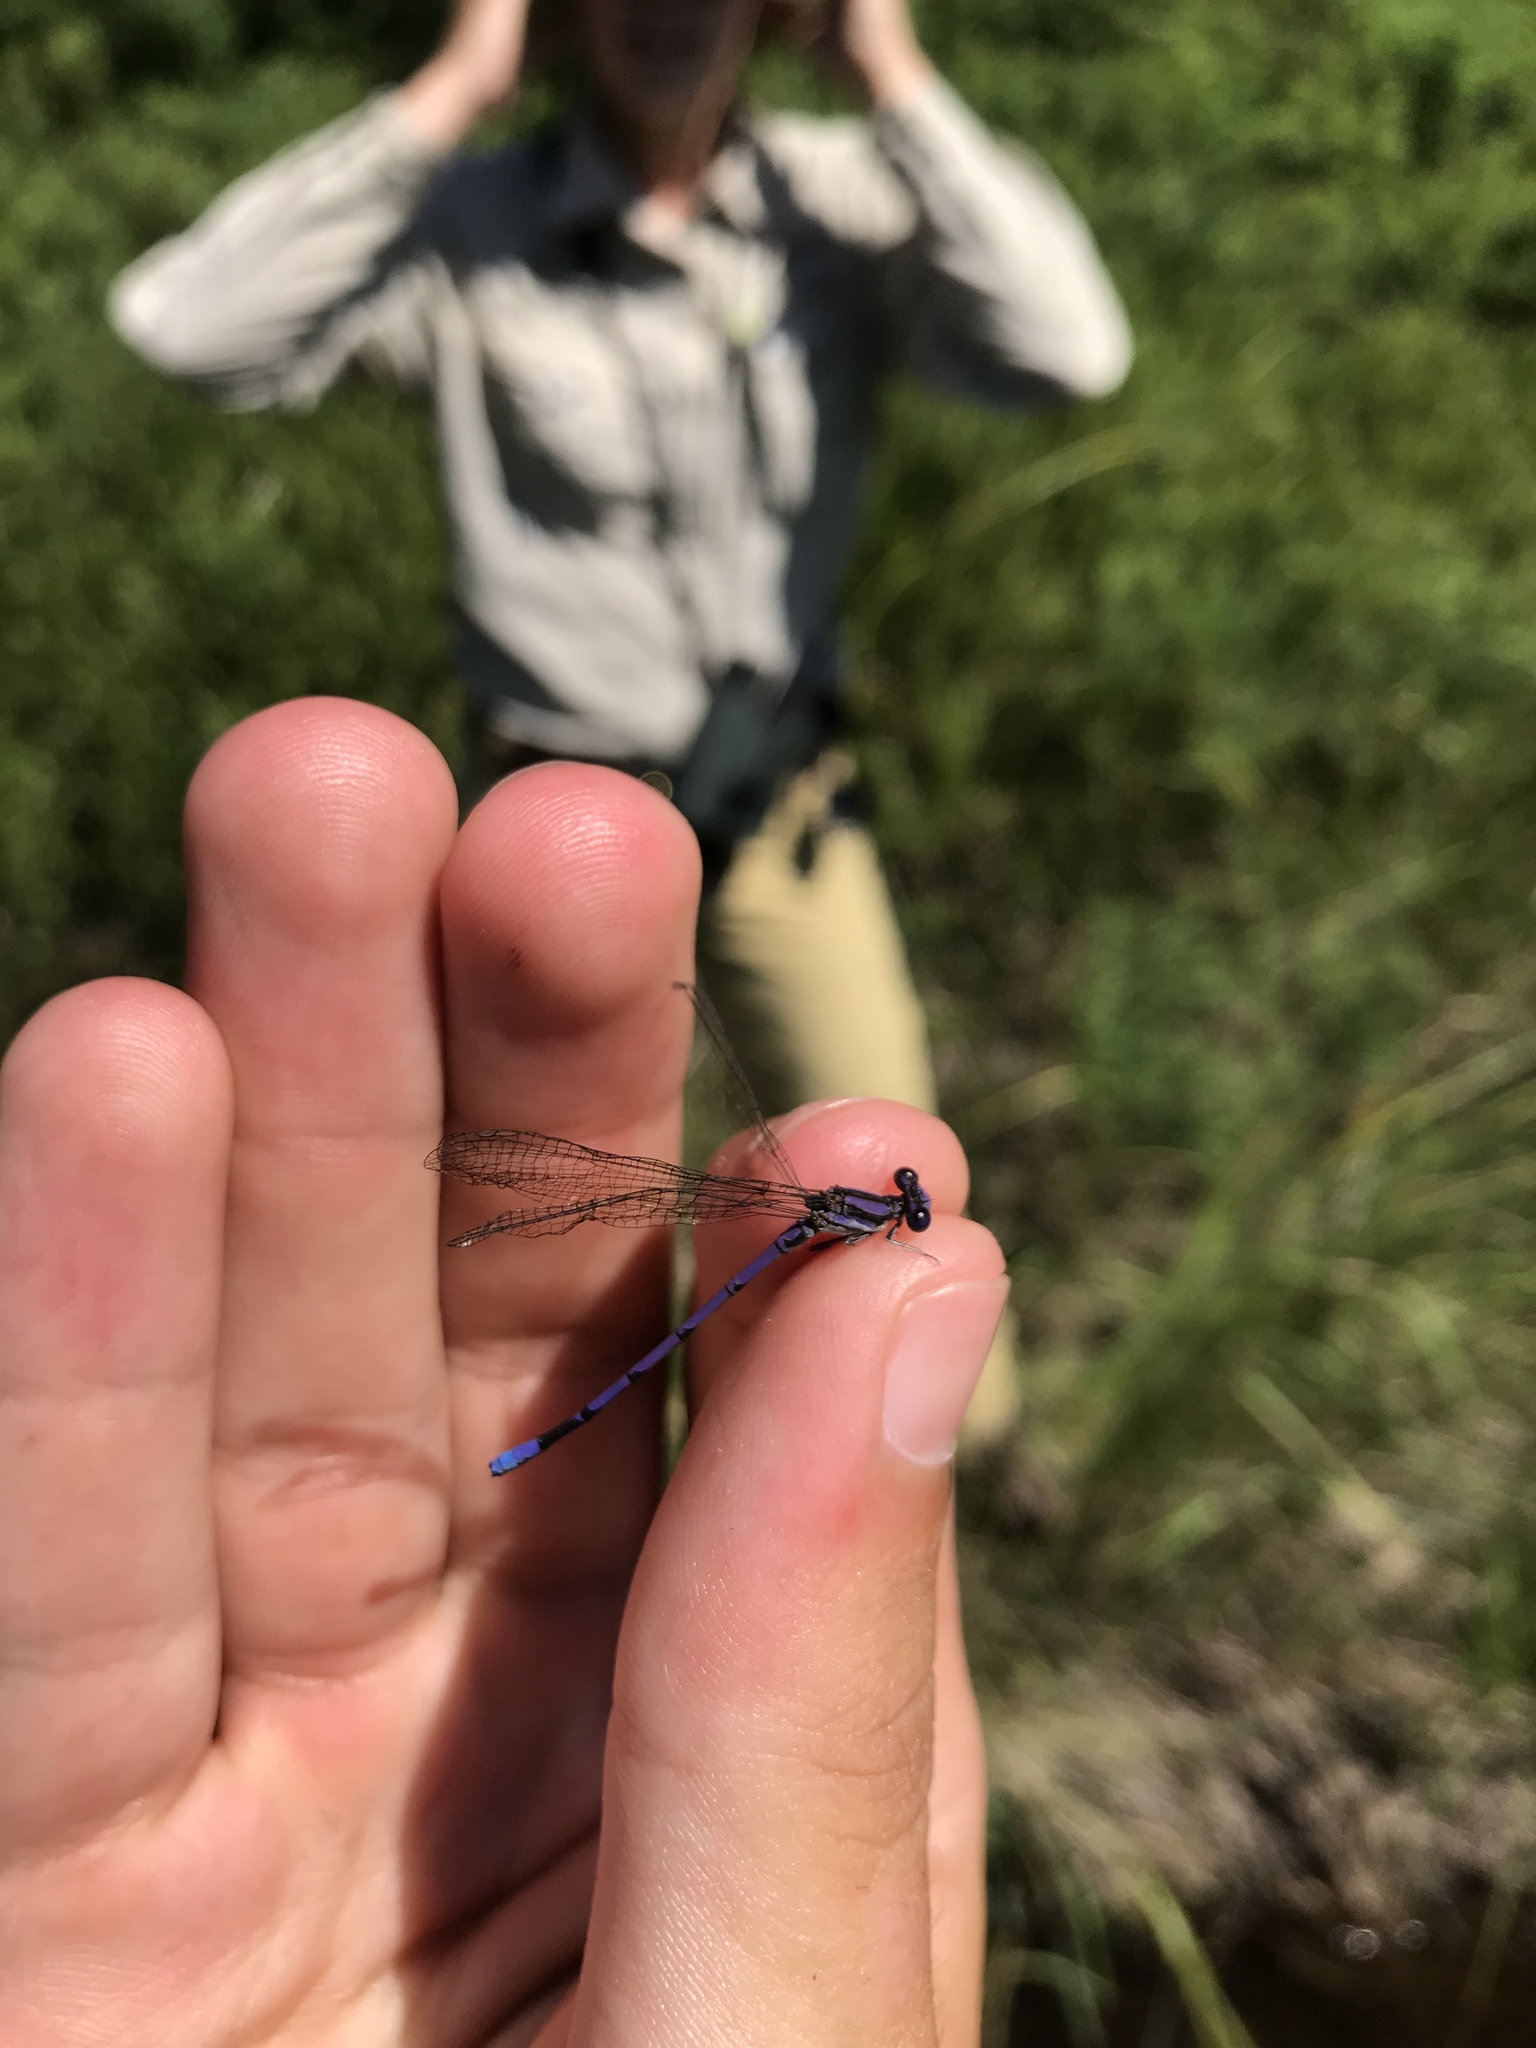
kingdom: Animalia
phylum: Arthropoda
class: Insecta
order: Odonata
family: Coenagrionidae
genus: Argia
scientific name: Argia fumipennis
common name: Variable dancer
